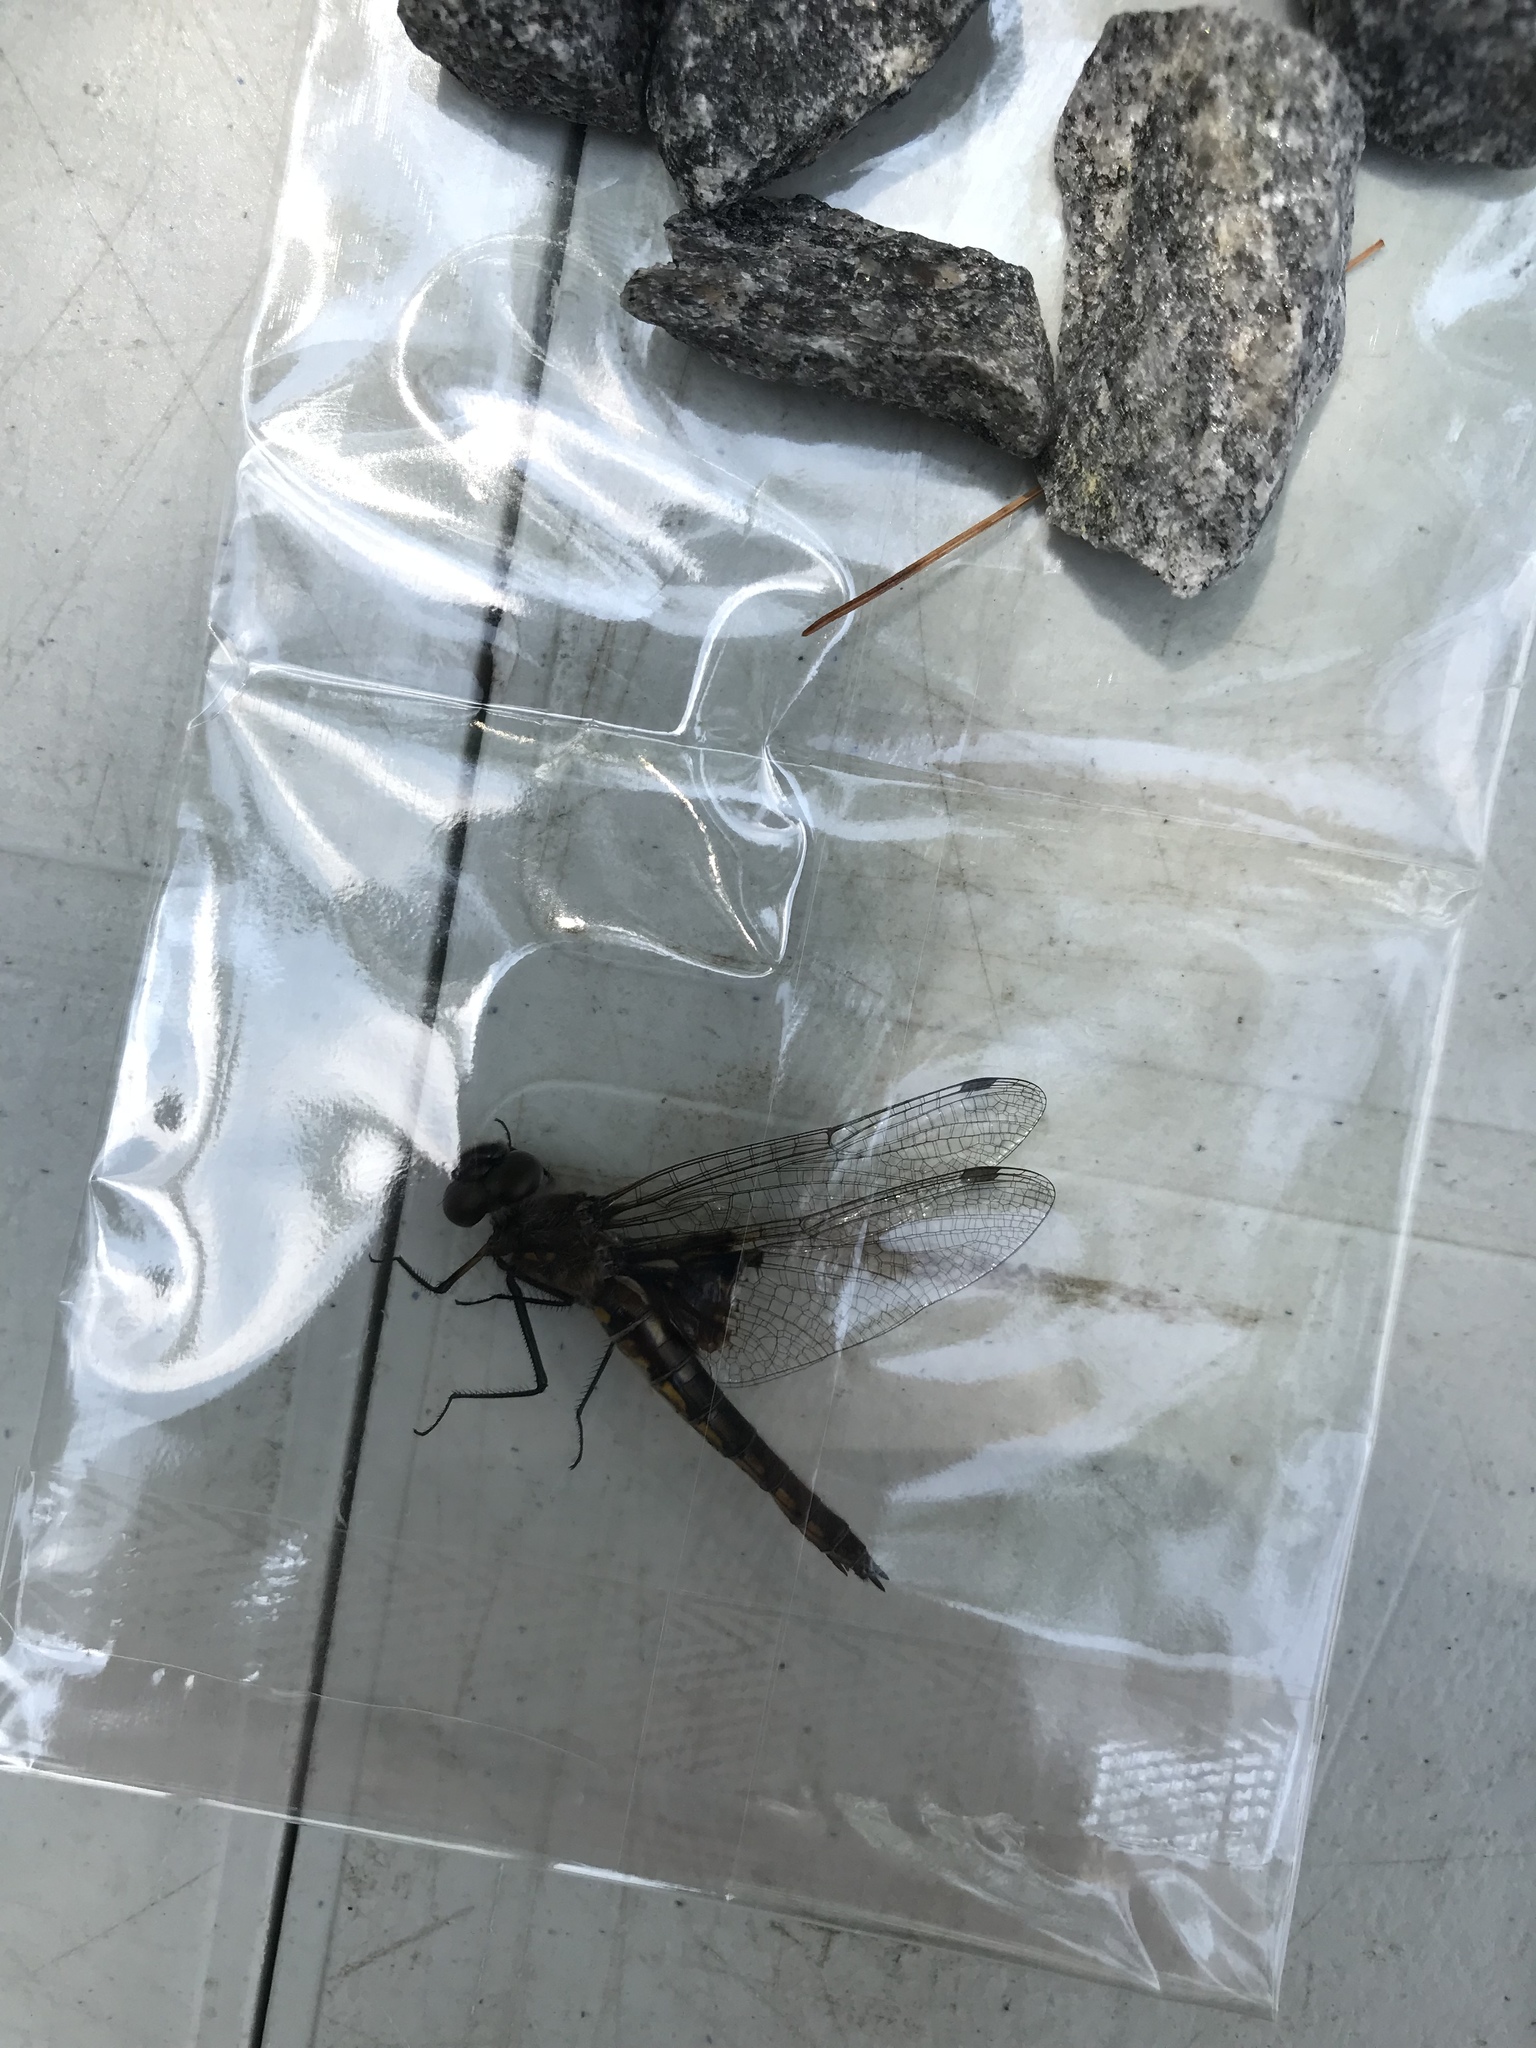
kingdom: Animalia
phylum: Arthropoda
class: Insecta
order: Odonata
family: Corduliidae
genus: Epitheca
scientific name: Epitheca cynosura
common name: Common baskettail
